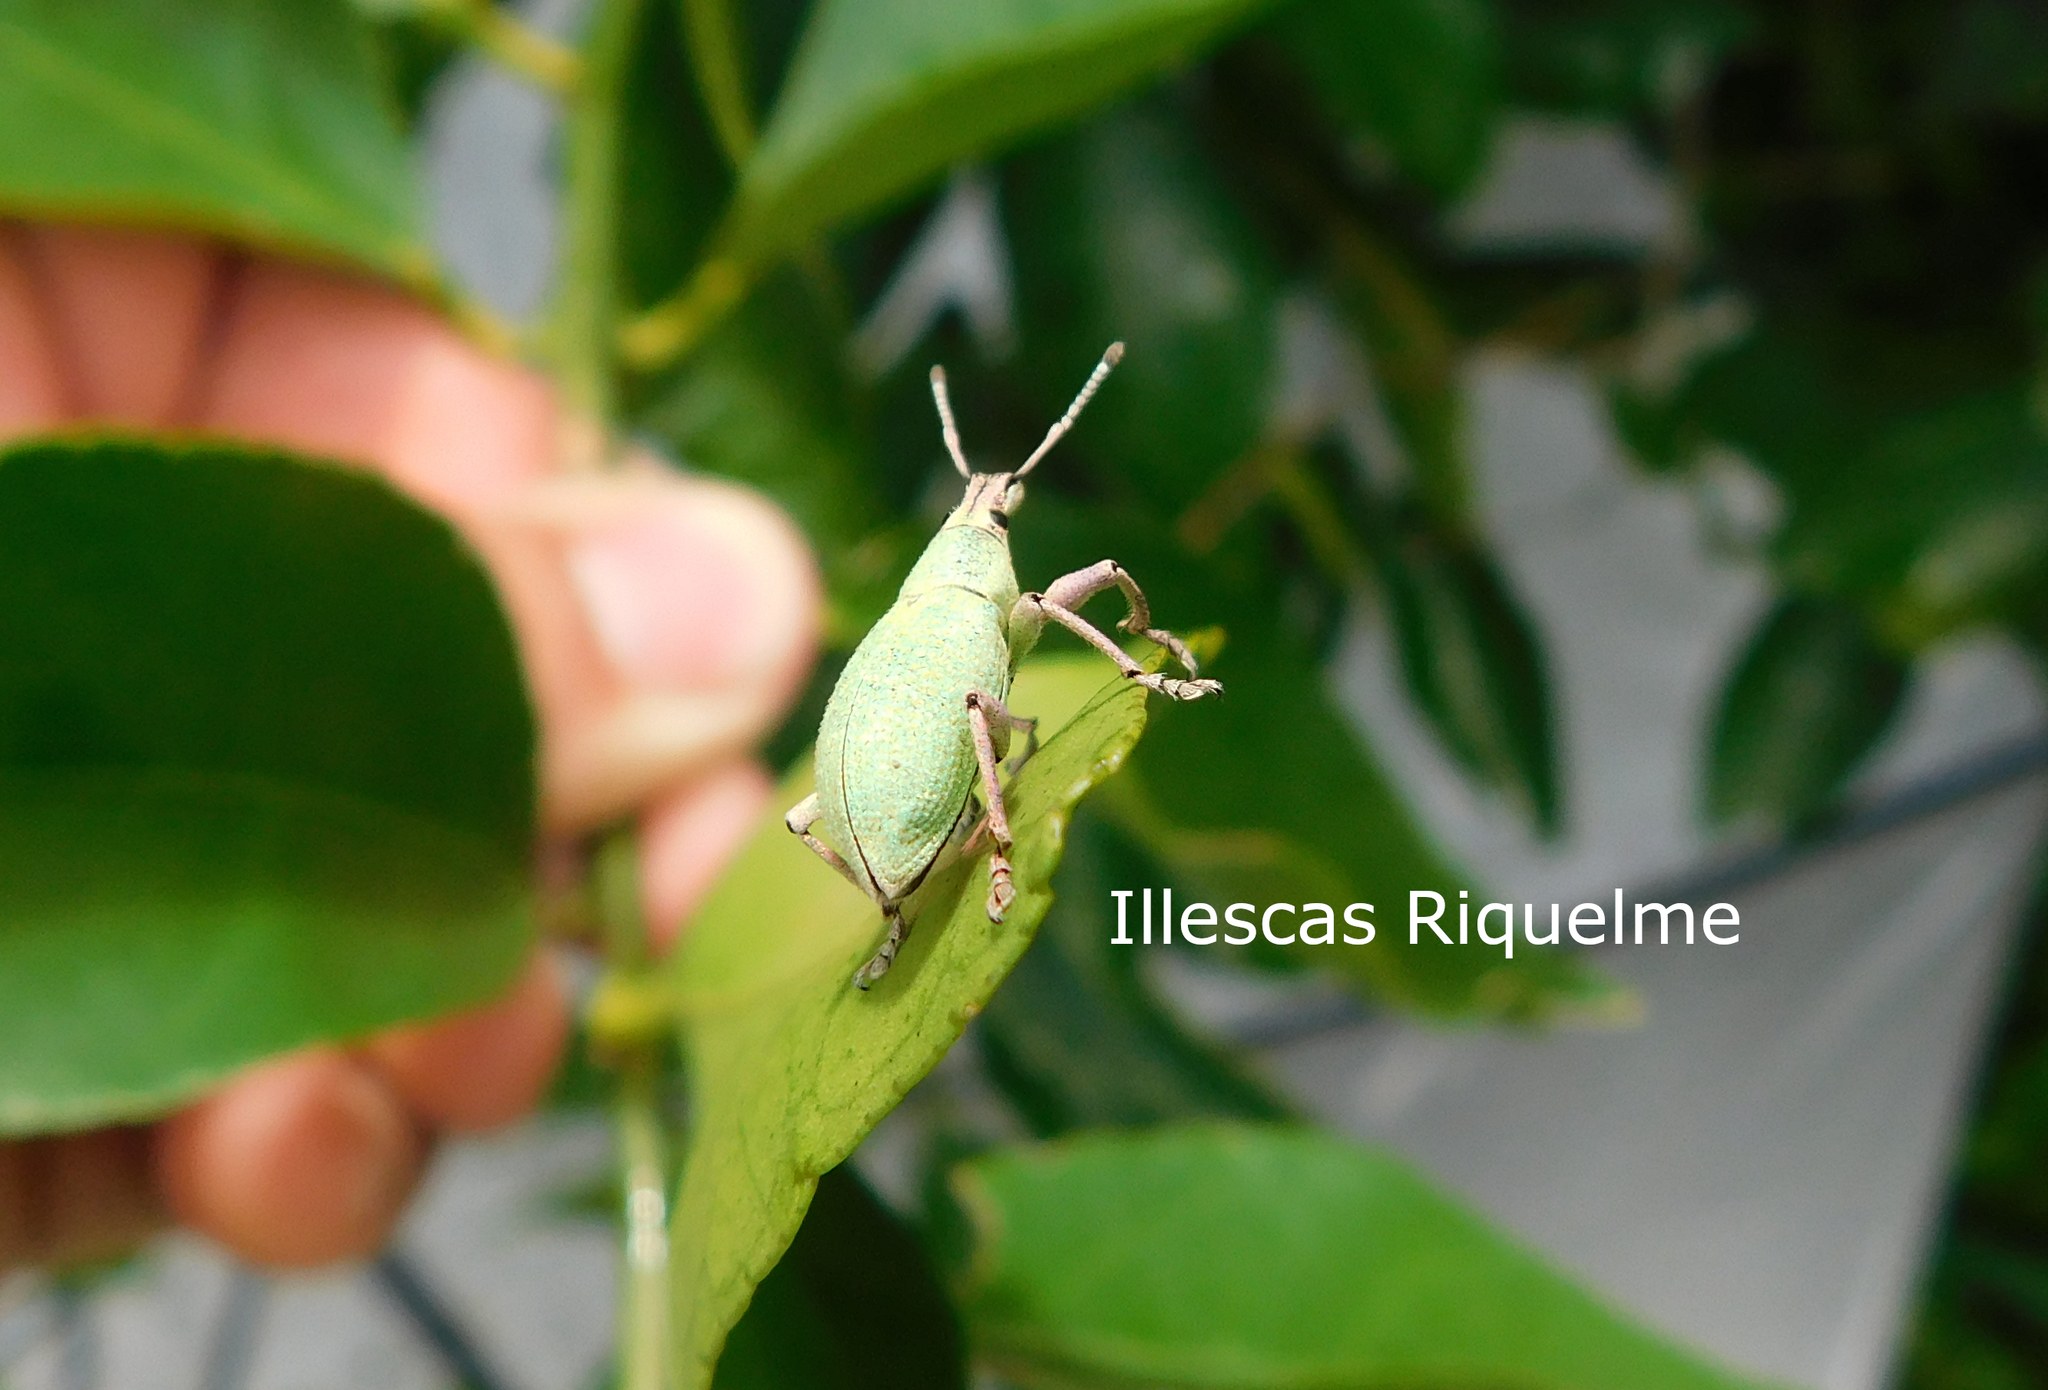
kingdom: Animalia
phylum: Arthropoda
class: Insecta
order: Coleoptera
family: Curculionidae
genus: Exophthalmus
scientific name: Exophthalmus opulentus
